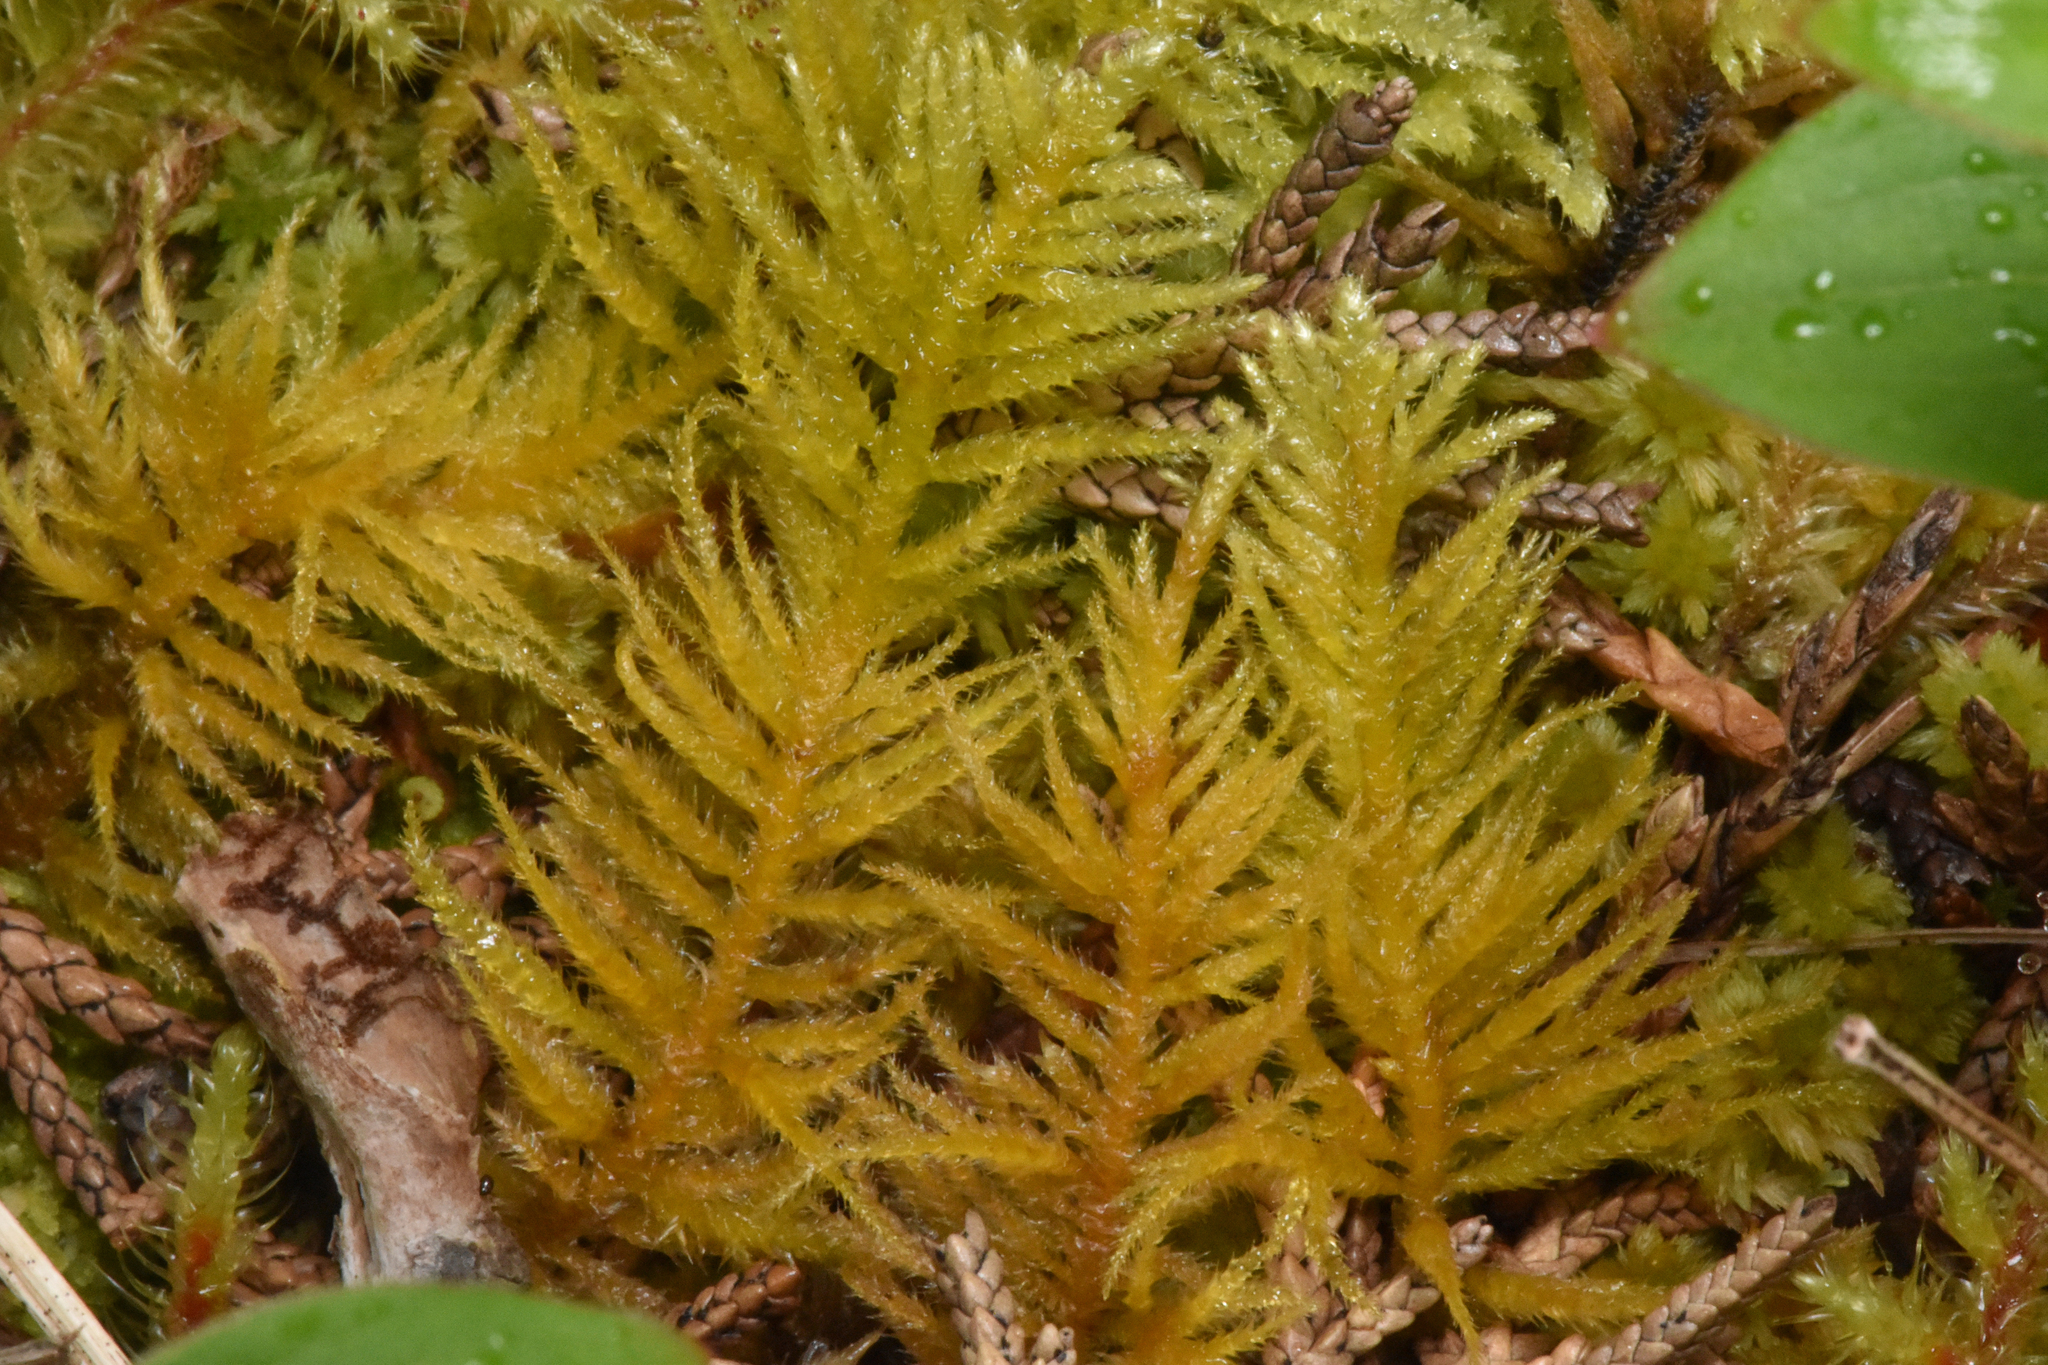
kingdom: Plantae
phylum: Bryophyta
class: Bryopsida
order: Hypnales
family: Brachytheciaceae
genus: Kindbergia
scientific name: Kindbergia oregana
